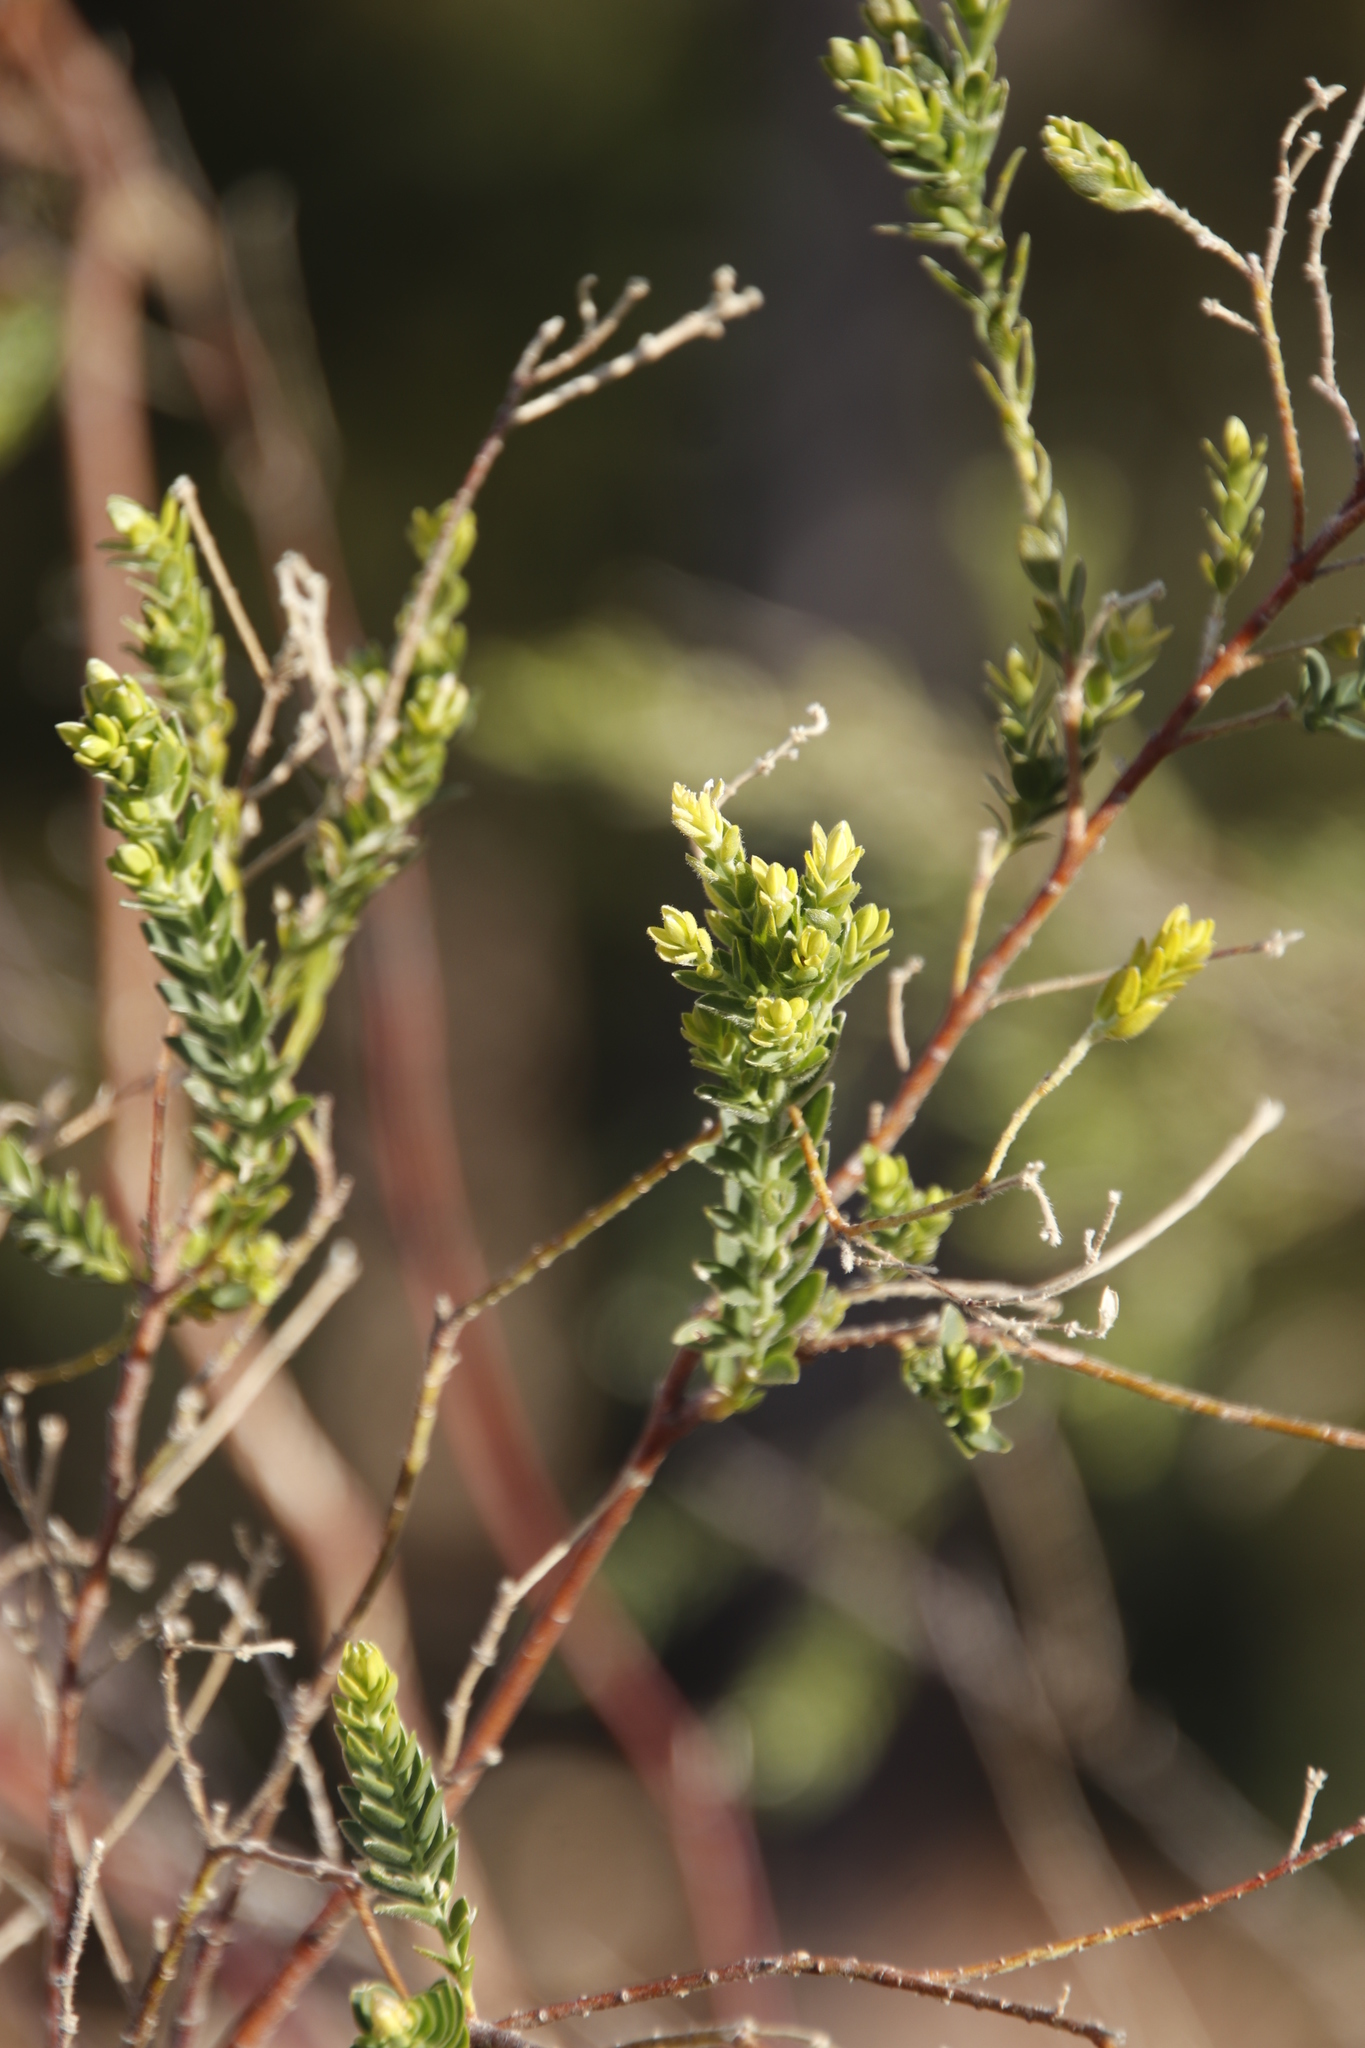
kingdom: Plantae
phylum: Tracheophyta
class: Magnoliopsida
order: Malvales
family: Thymelaeaceae
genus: Gnidia
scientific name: Gnidia sericea
